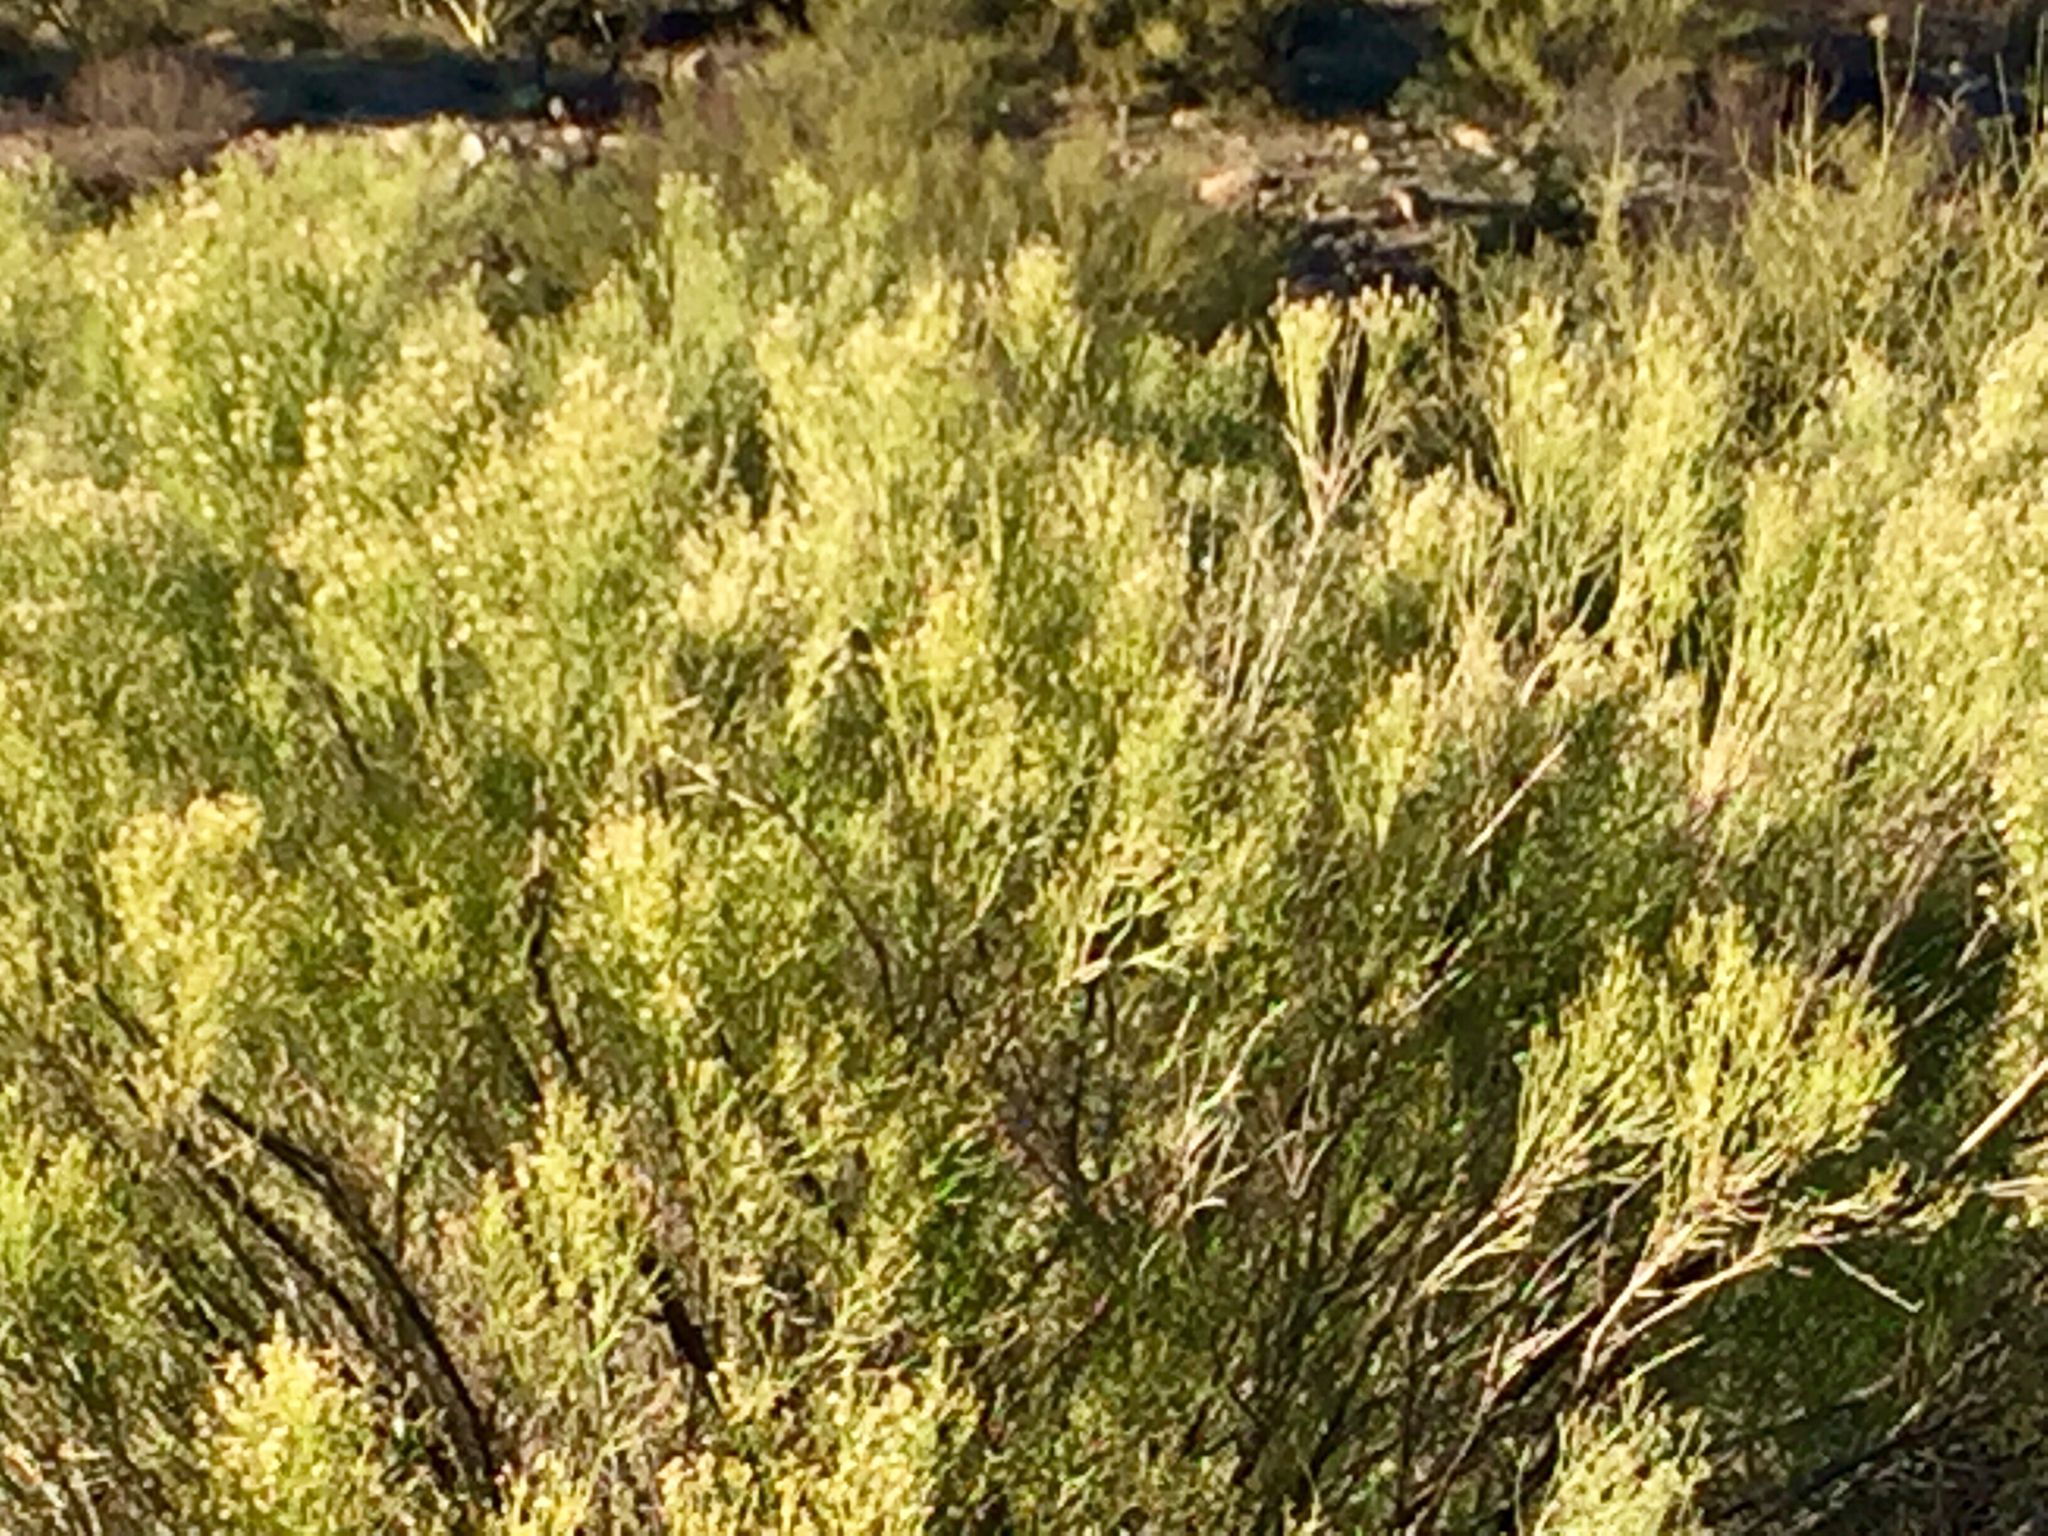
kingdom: Plantae
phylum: Tracheophyta
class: Magnoliopsida
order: Asterales
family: Asteraceae
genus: Baccharis
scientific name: Baccharis sarothroides
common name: Desert-broom
